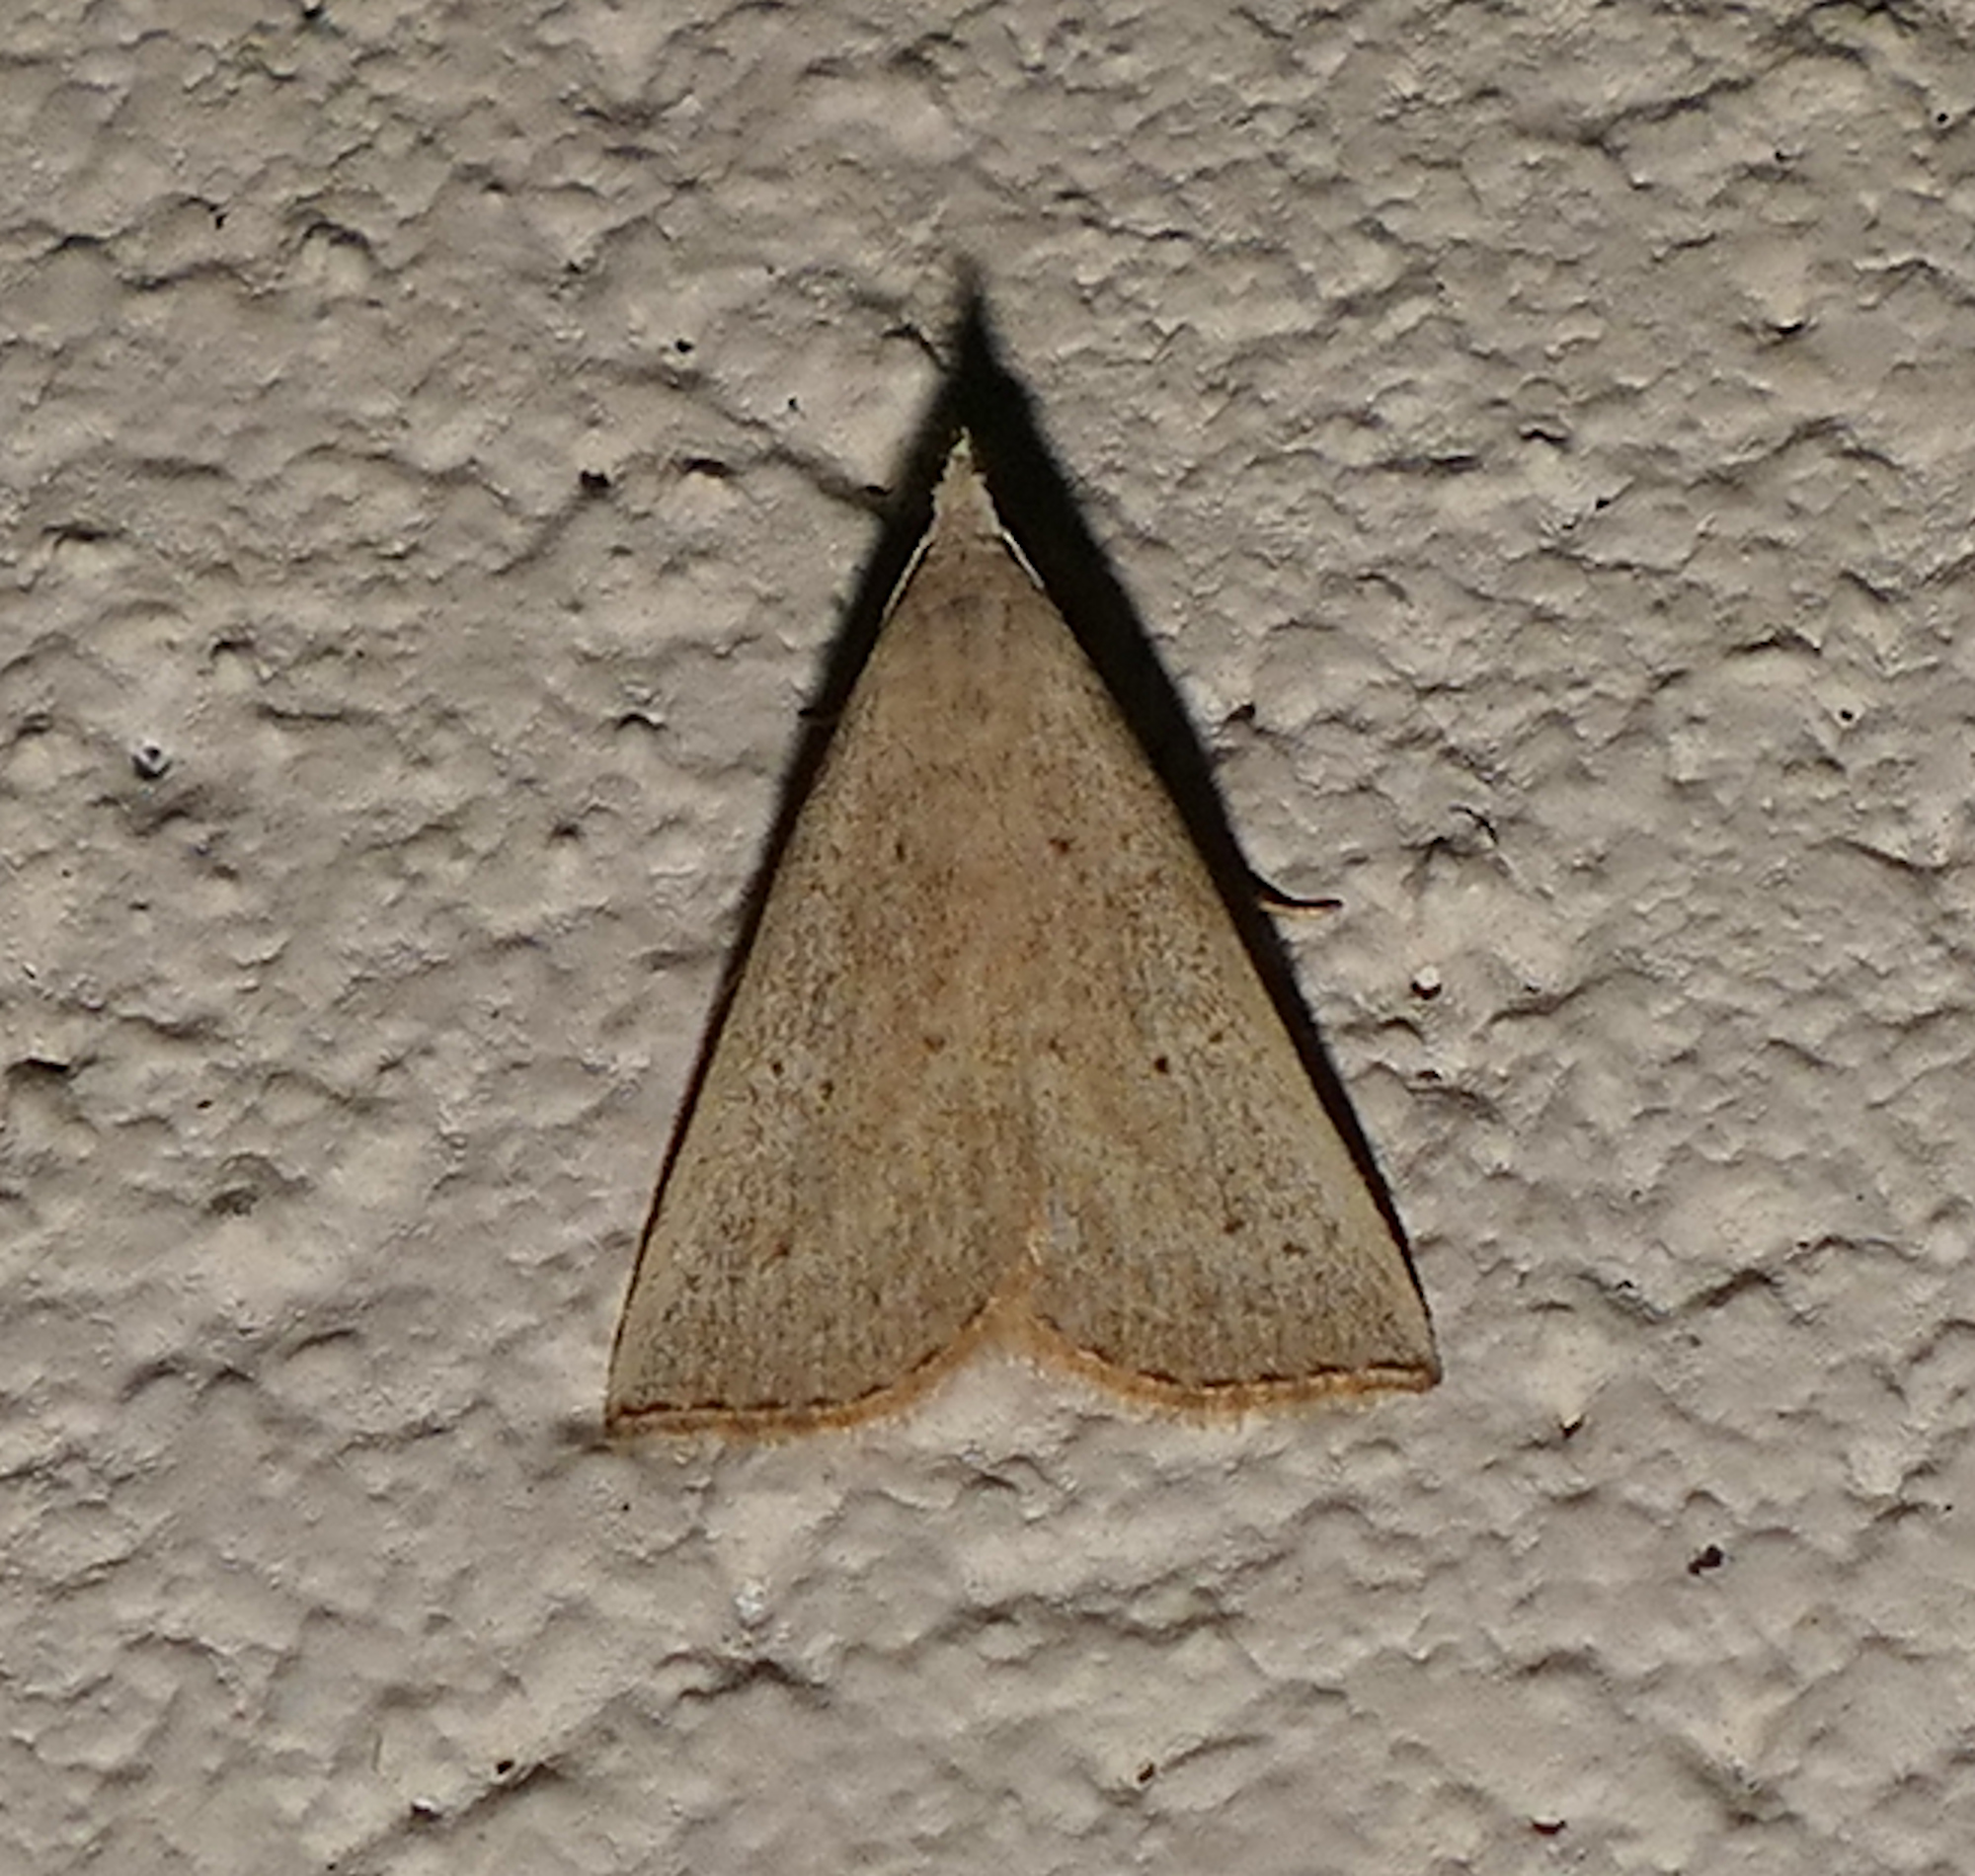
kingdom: Animalia
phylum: Arthropoda
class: Insecta
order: Lepidoptera
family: Erebidae
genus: Macrochilo
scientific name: Macrochilo louisiana
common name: Louisiana macrochilo
